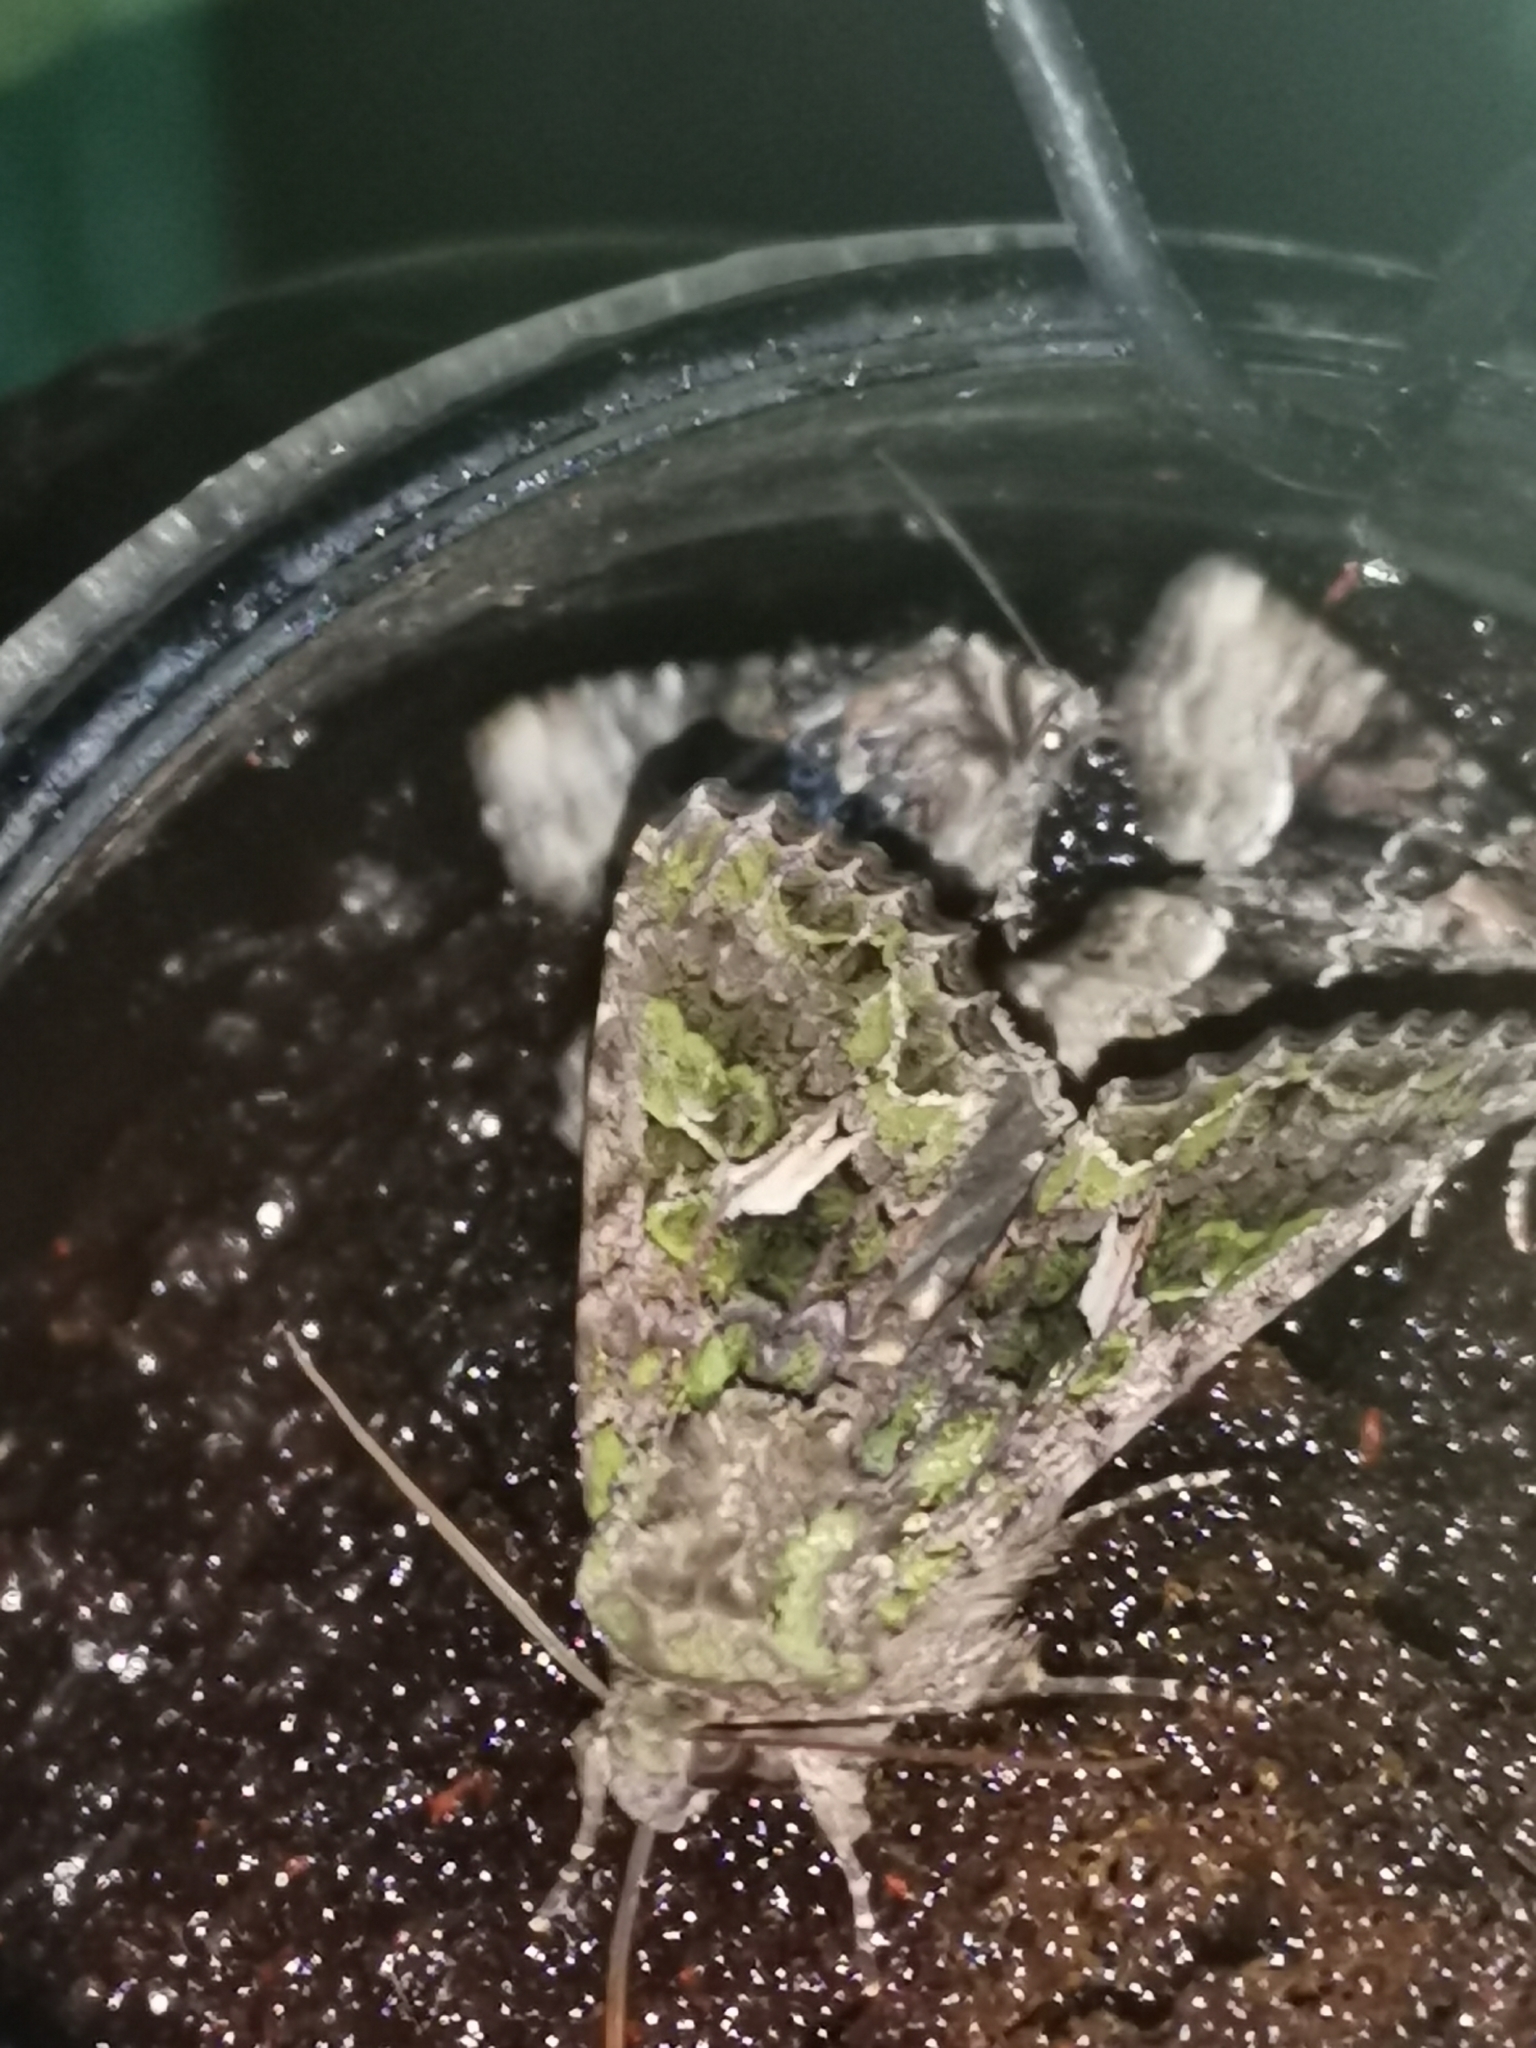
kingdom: Animalia
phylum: Arthropoda
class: Insecta
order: Lepidoptera
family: Noctuidae
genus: Trachea
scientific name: Trachea atriplicis
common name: Orache moth
